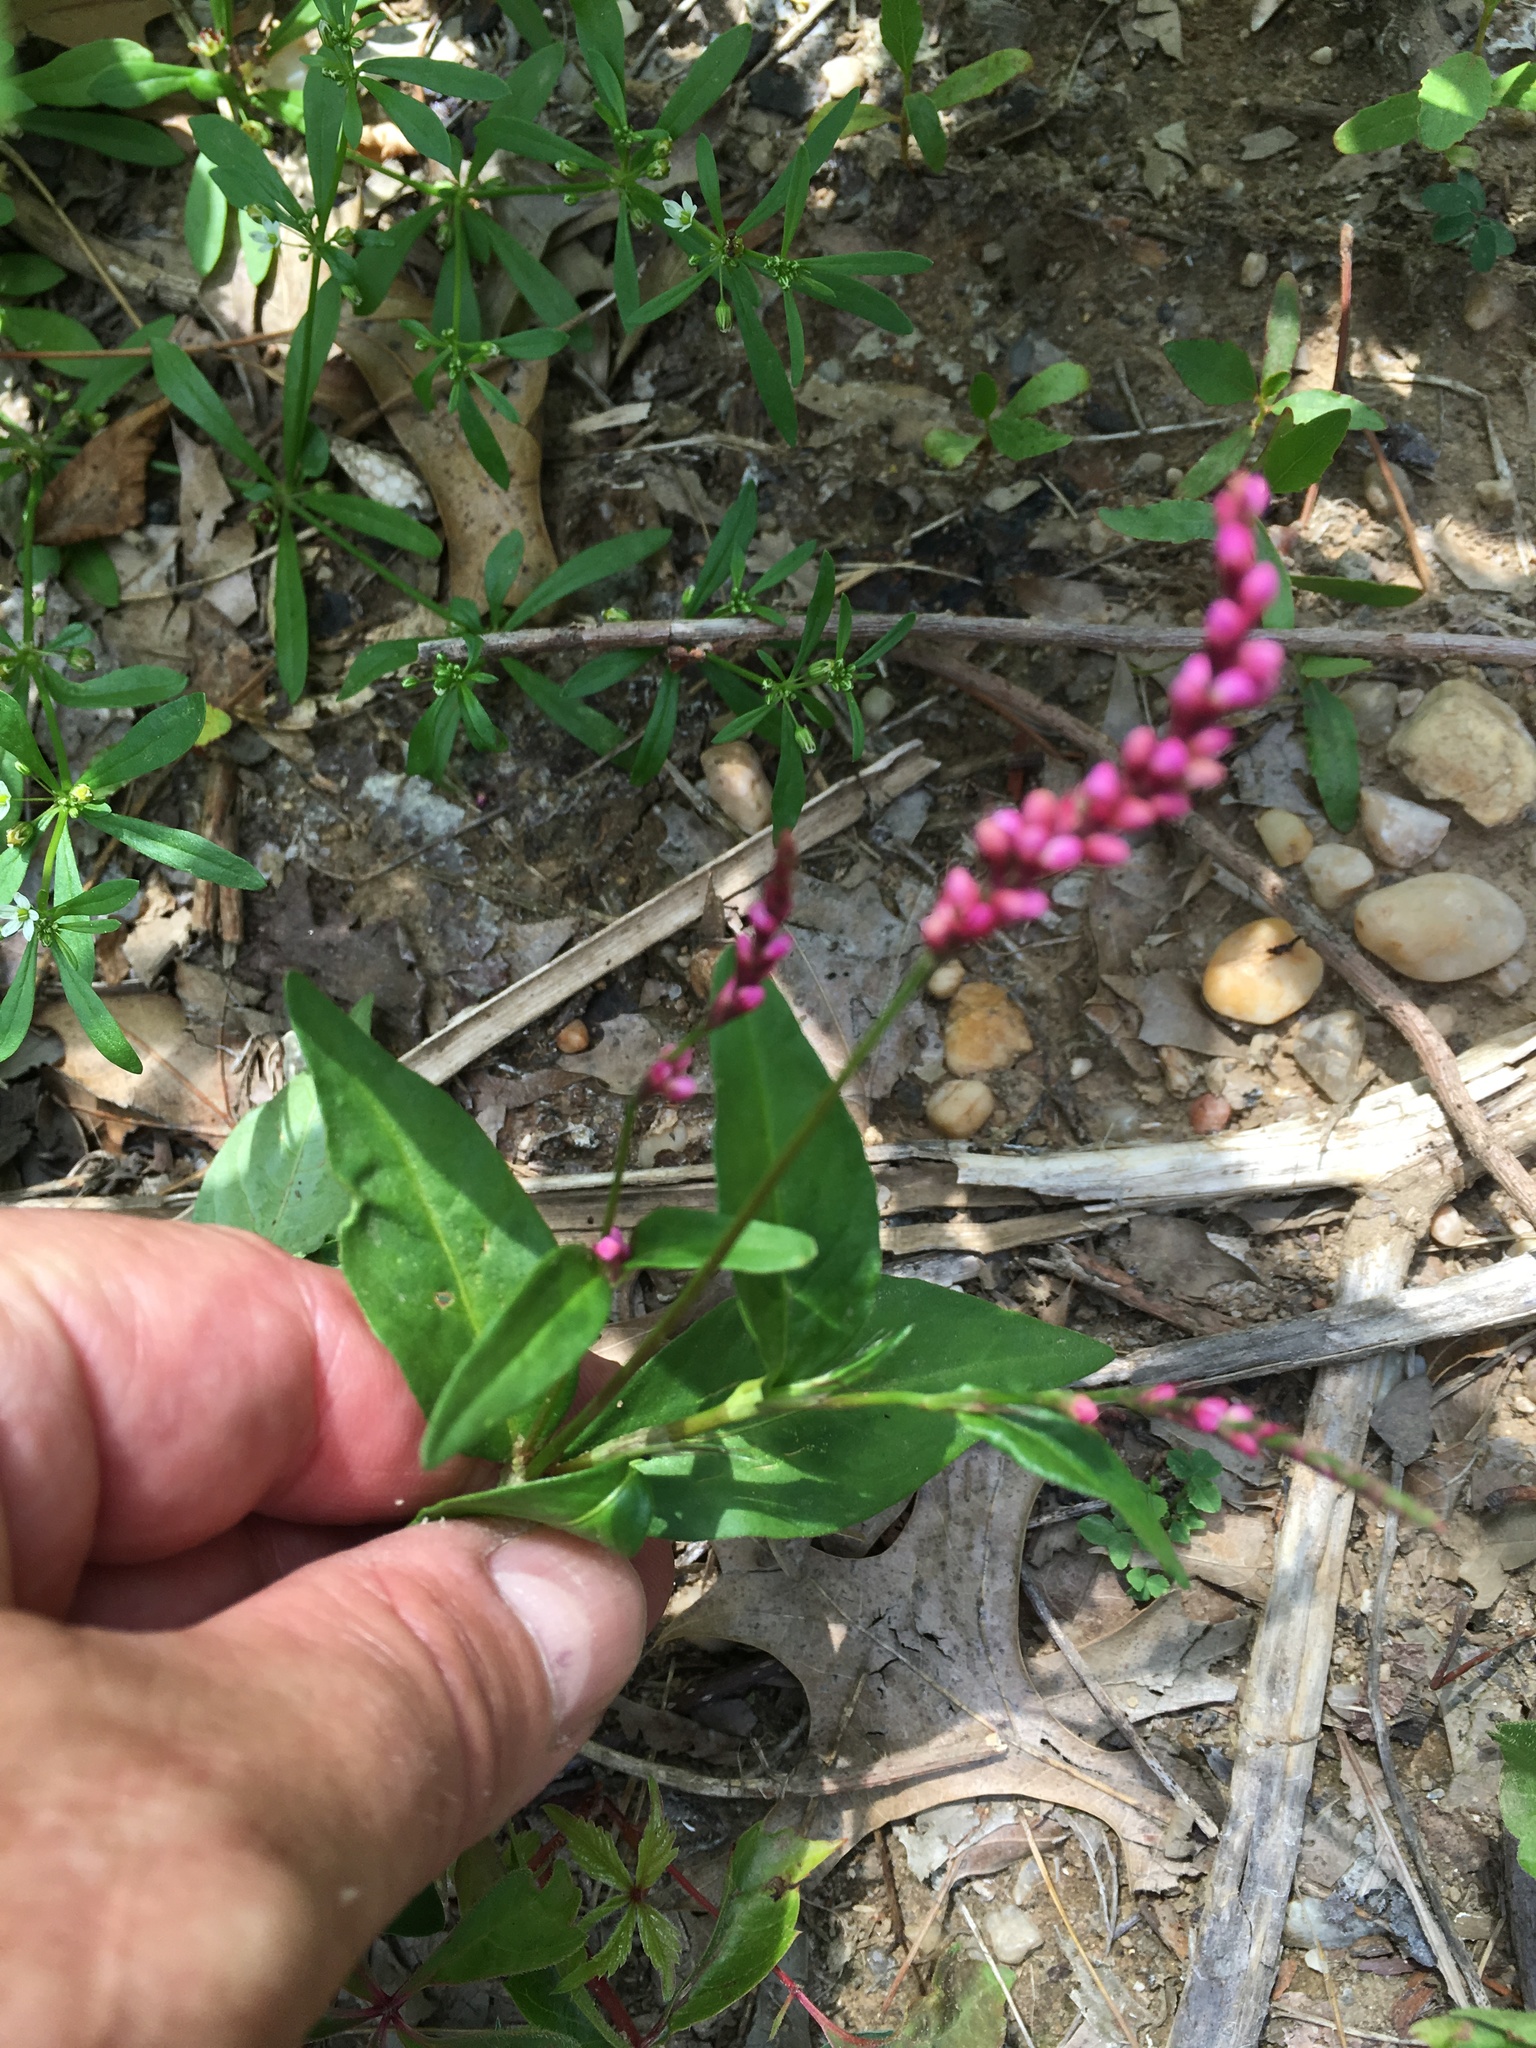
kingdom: Plantae
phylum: Tracheophyta
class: Magnoliopsida
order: Caryophyllales
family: Polygonaceae
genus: Persicaria
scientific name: Persicaria longiseta
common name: Bristly lady's-thumb
